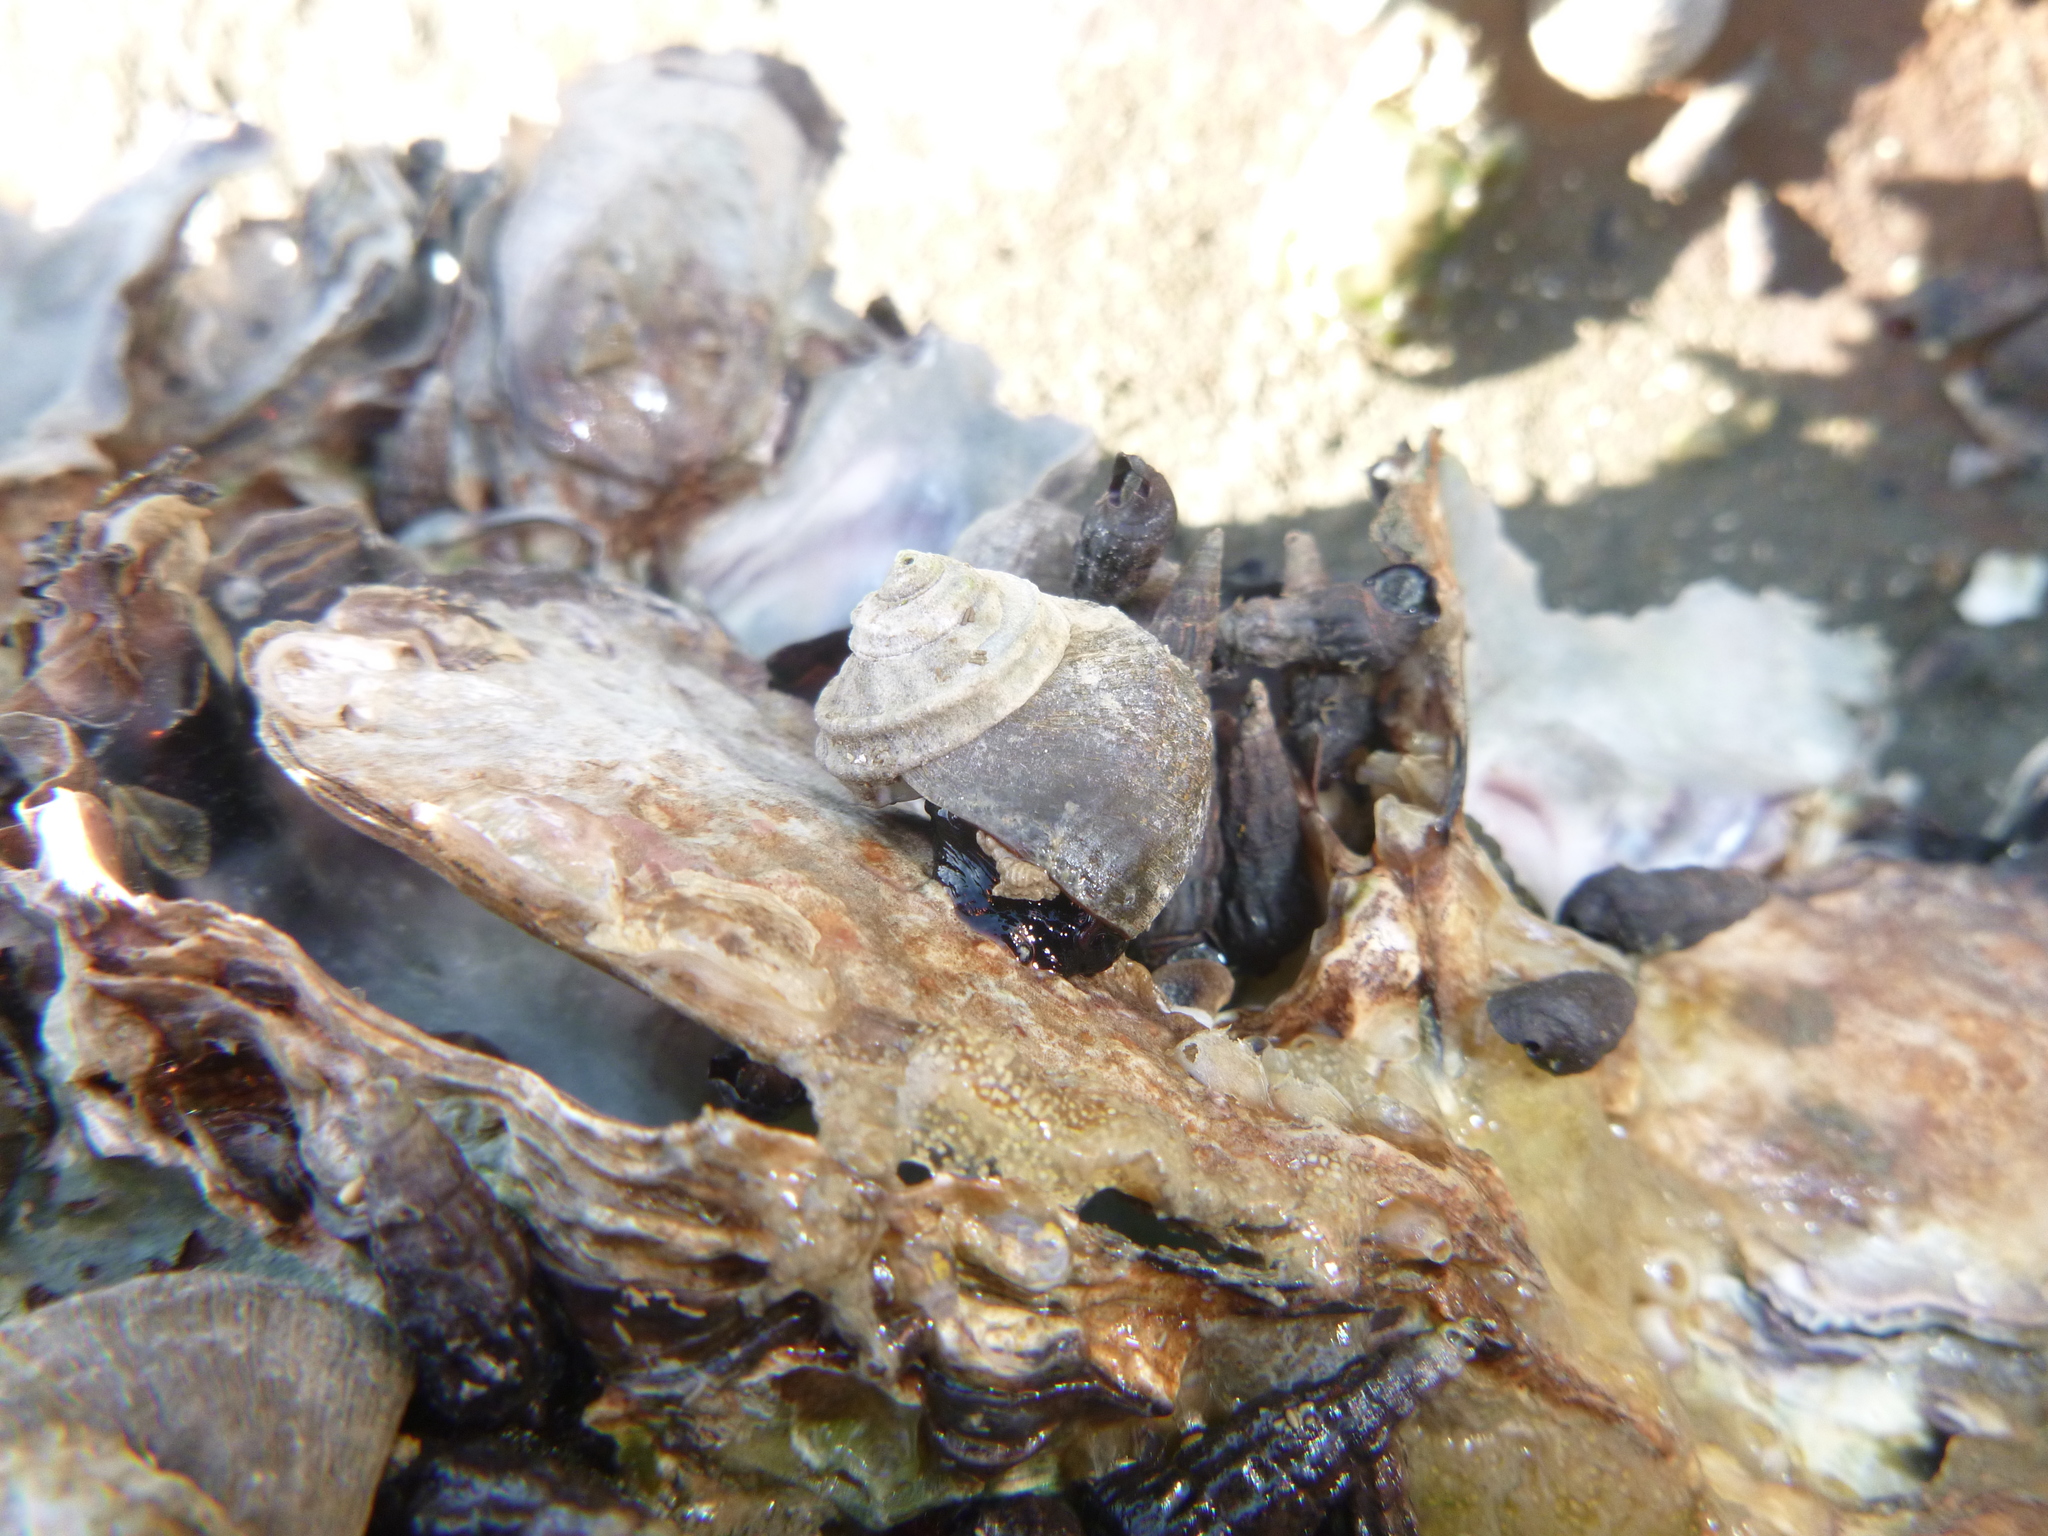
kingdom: Animalia
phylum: Mollusca
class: Gastropoda
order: Trochida
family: Turbinidae
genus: Lunella
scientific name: Lunella smaragda
